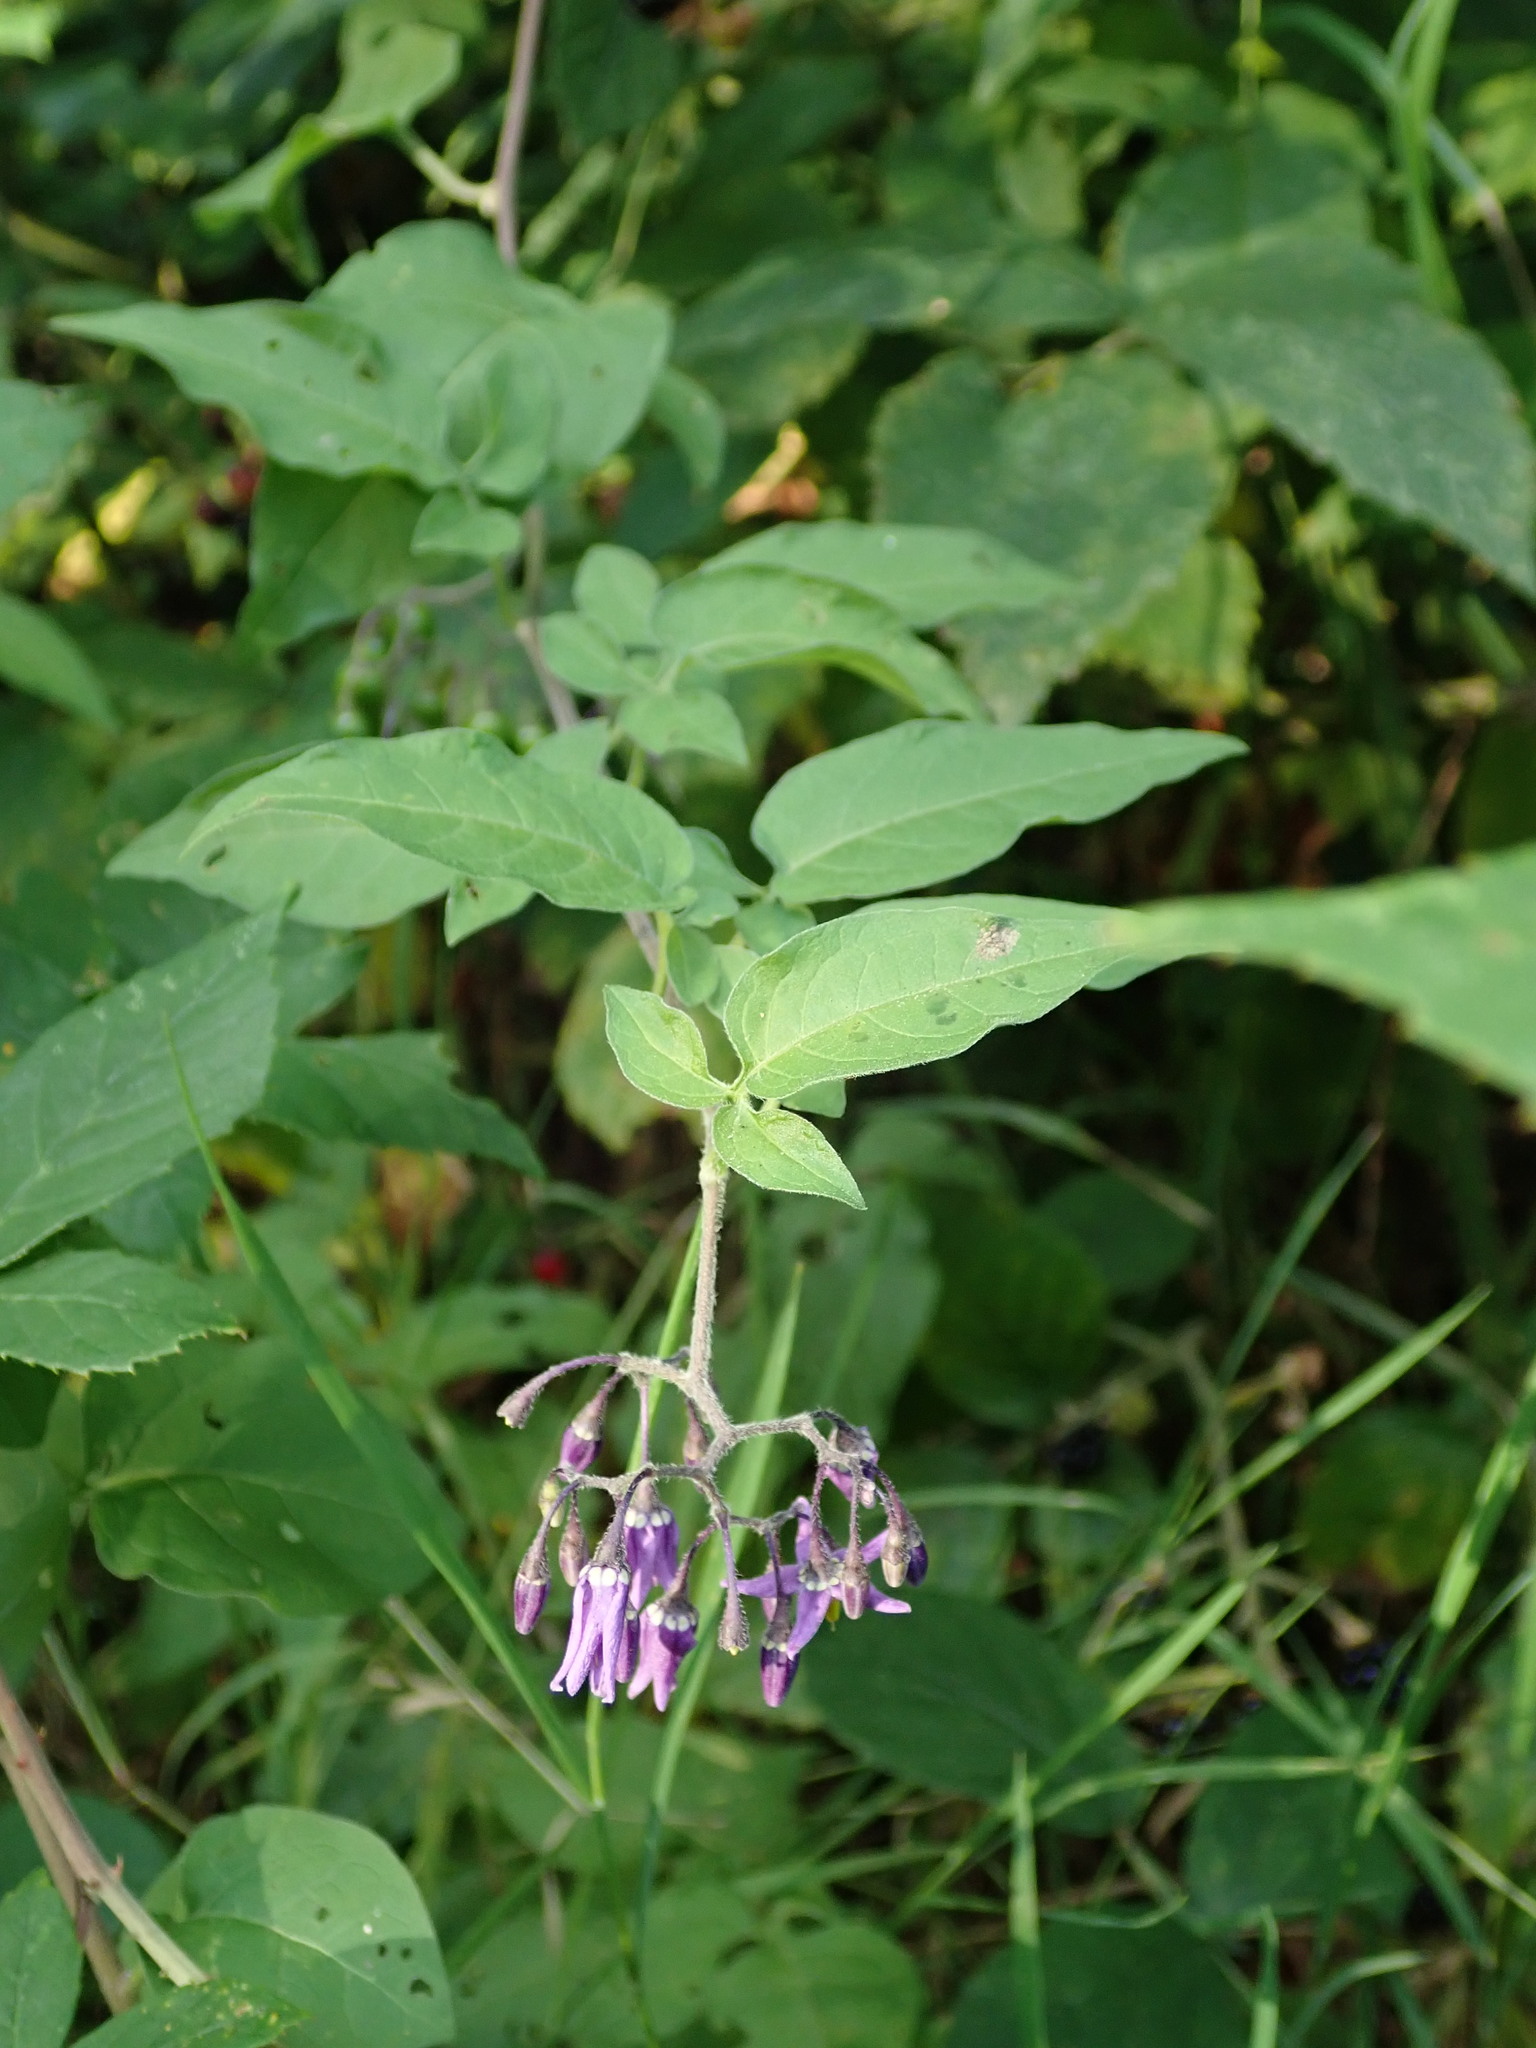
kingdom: Plantae
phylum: Tracheophyta
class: Magnoliopsida
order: Solanales
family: Solanaceae
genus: Solanum
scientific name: Solanum dulcamara
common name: Climbing nightshade
